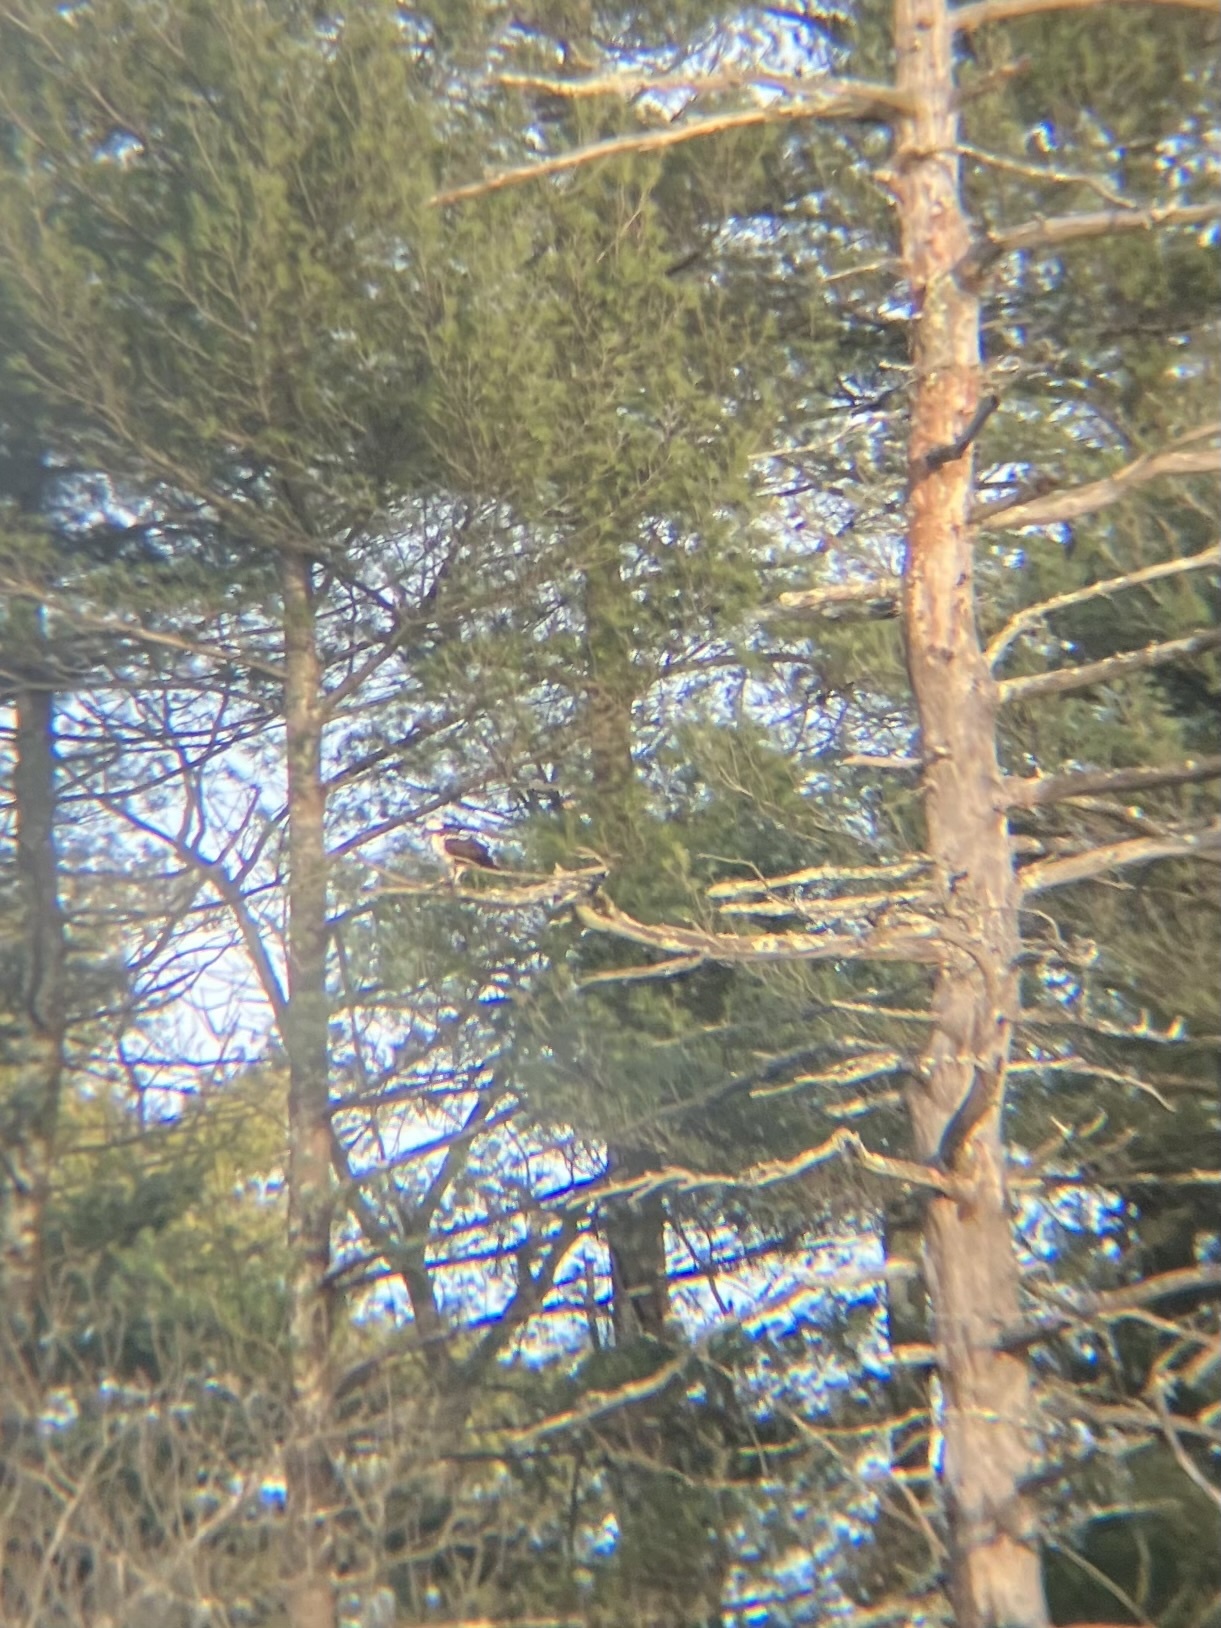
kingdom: Animalia
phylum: Chordata
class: Aves
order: Accipitriformes
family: Pandionidae
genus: Pandion
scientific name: Pandion haliaetus
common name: Osprey
